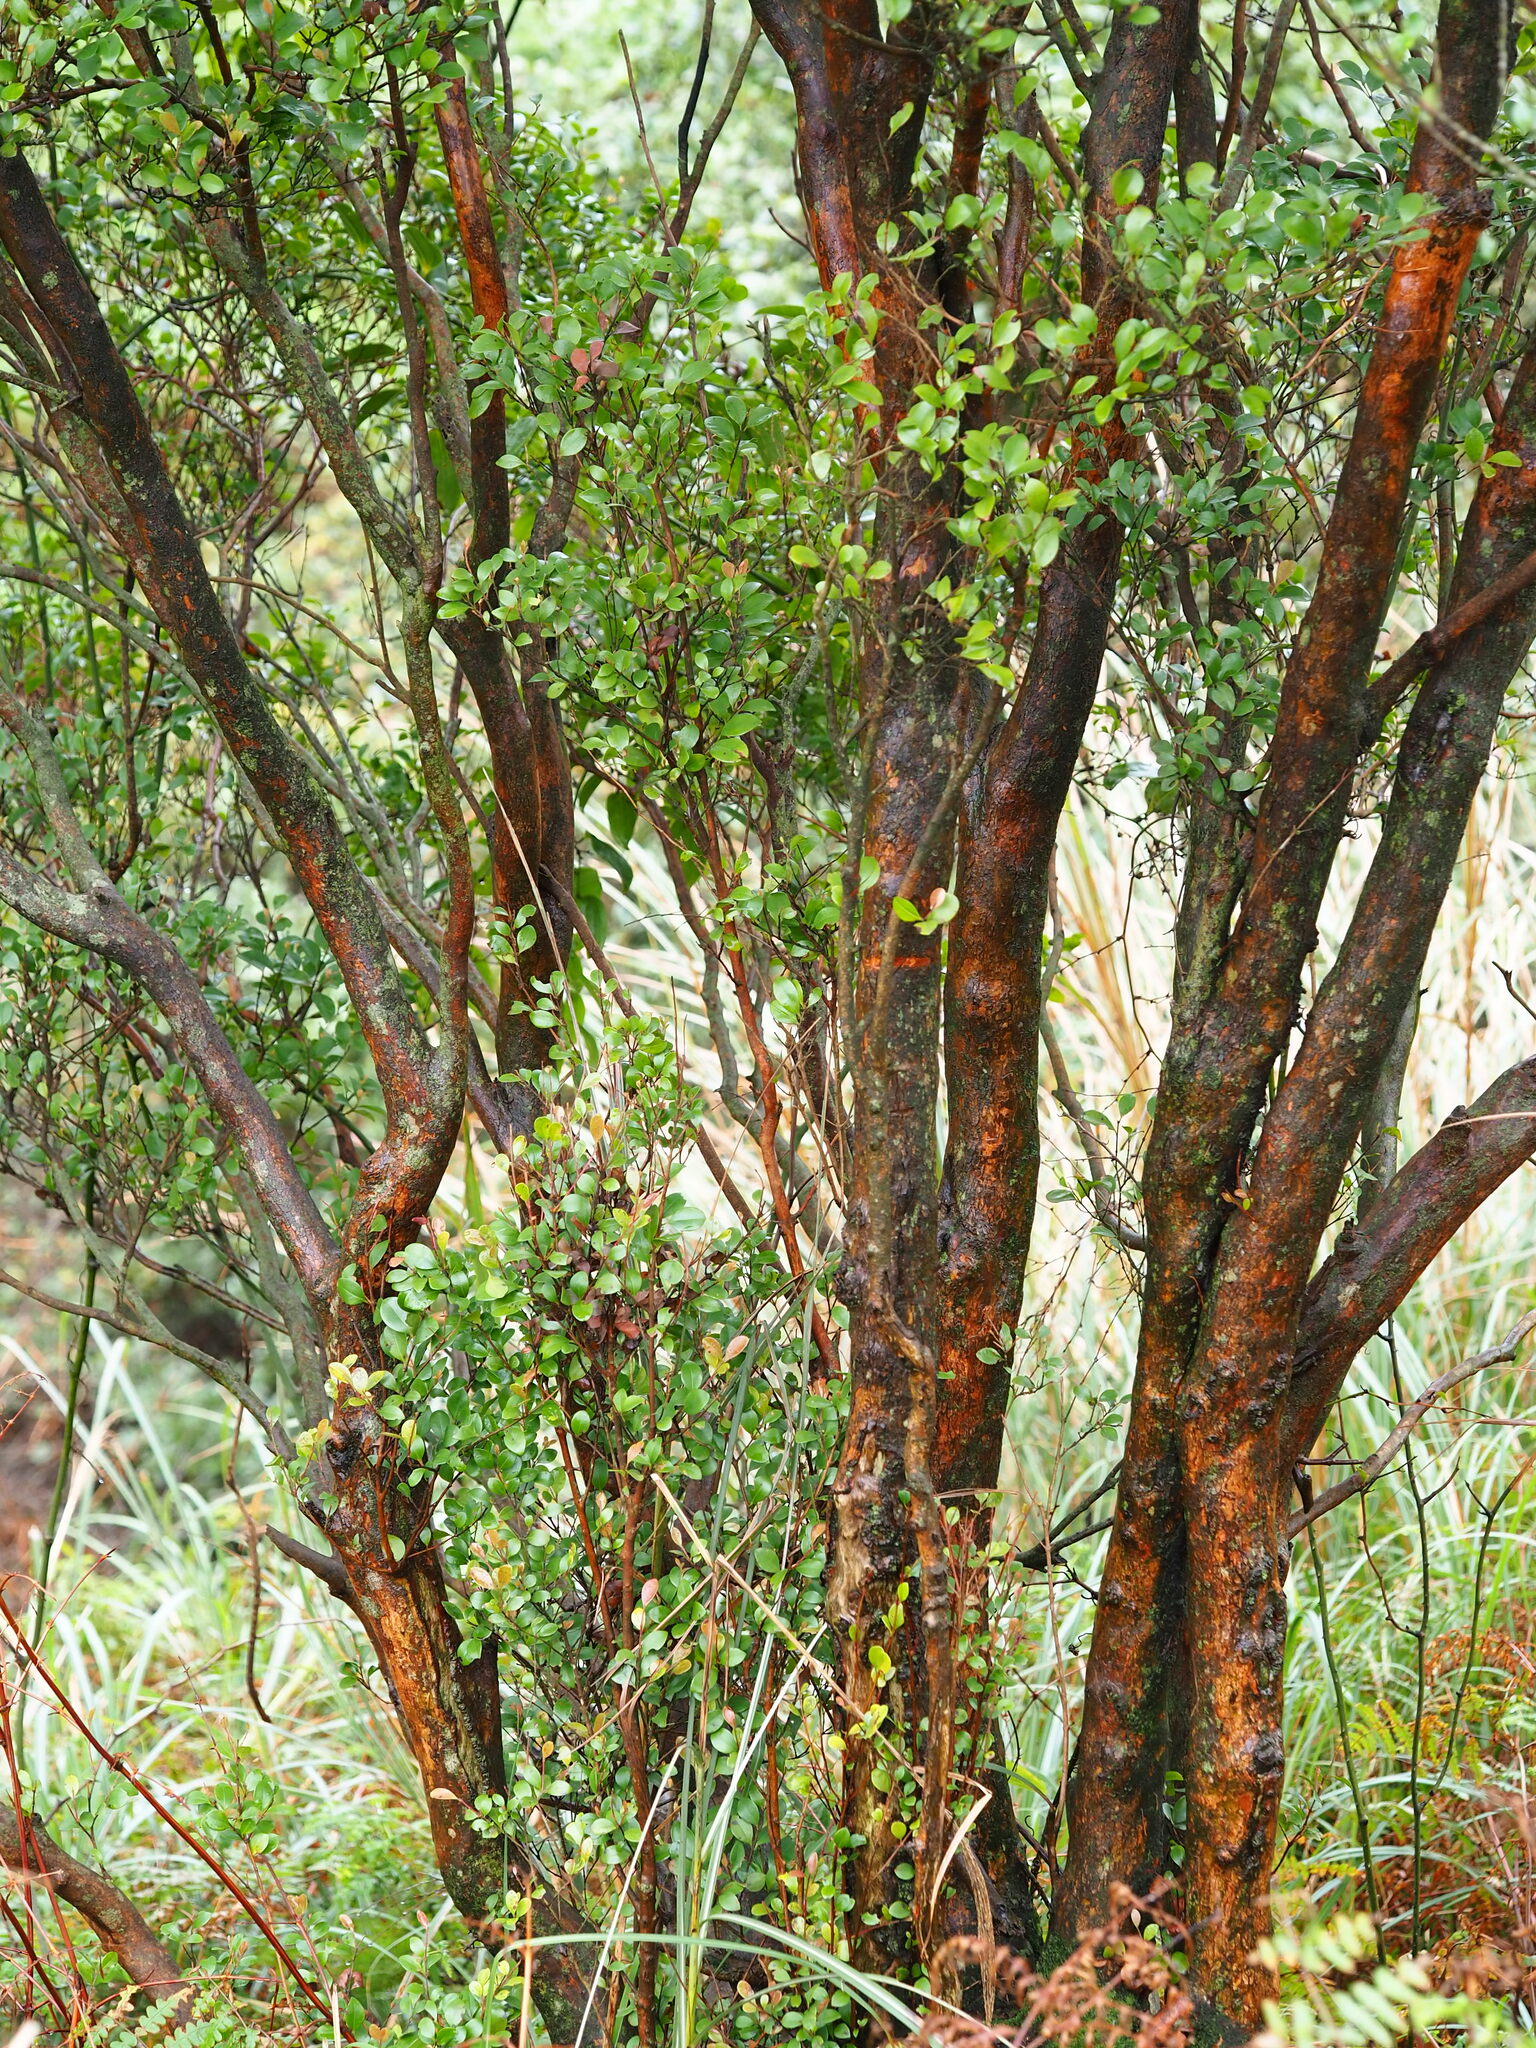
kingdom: Plantae
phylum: Tracheophyta
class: Magnoliopsida
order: Myrtales
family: Myrtaceae
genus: Syzygium
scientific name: Syzygium elliptifolium
